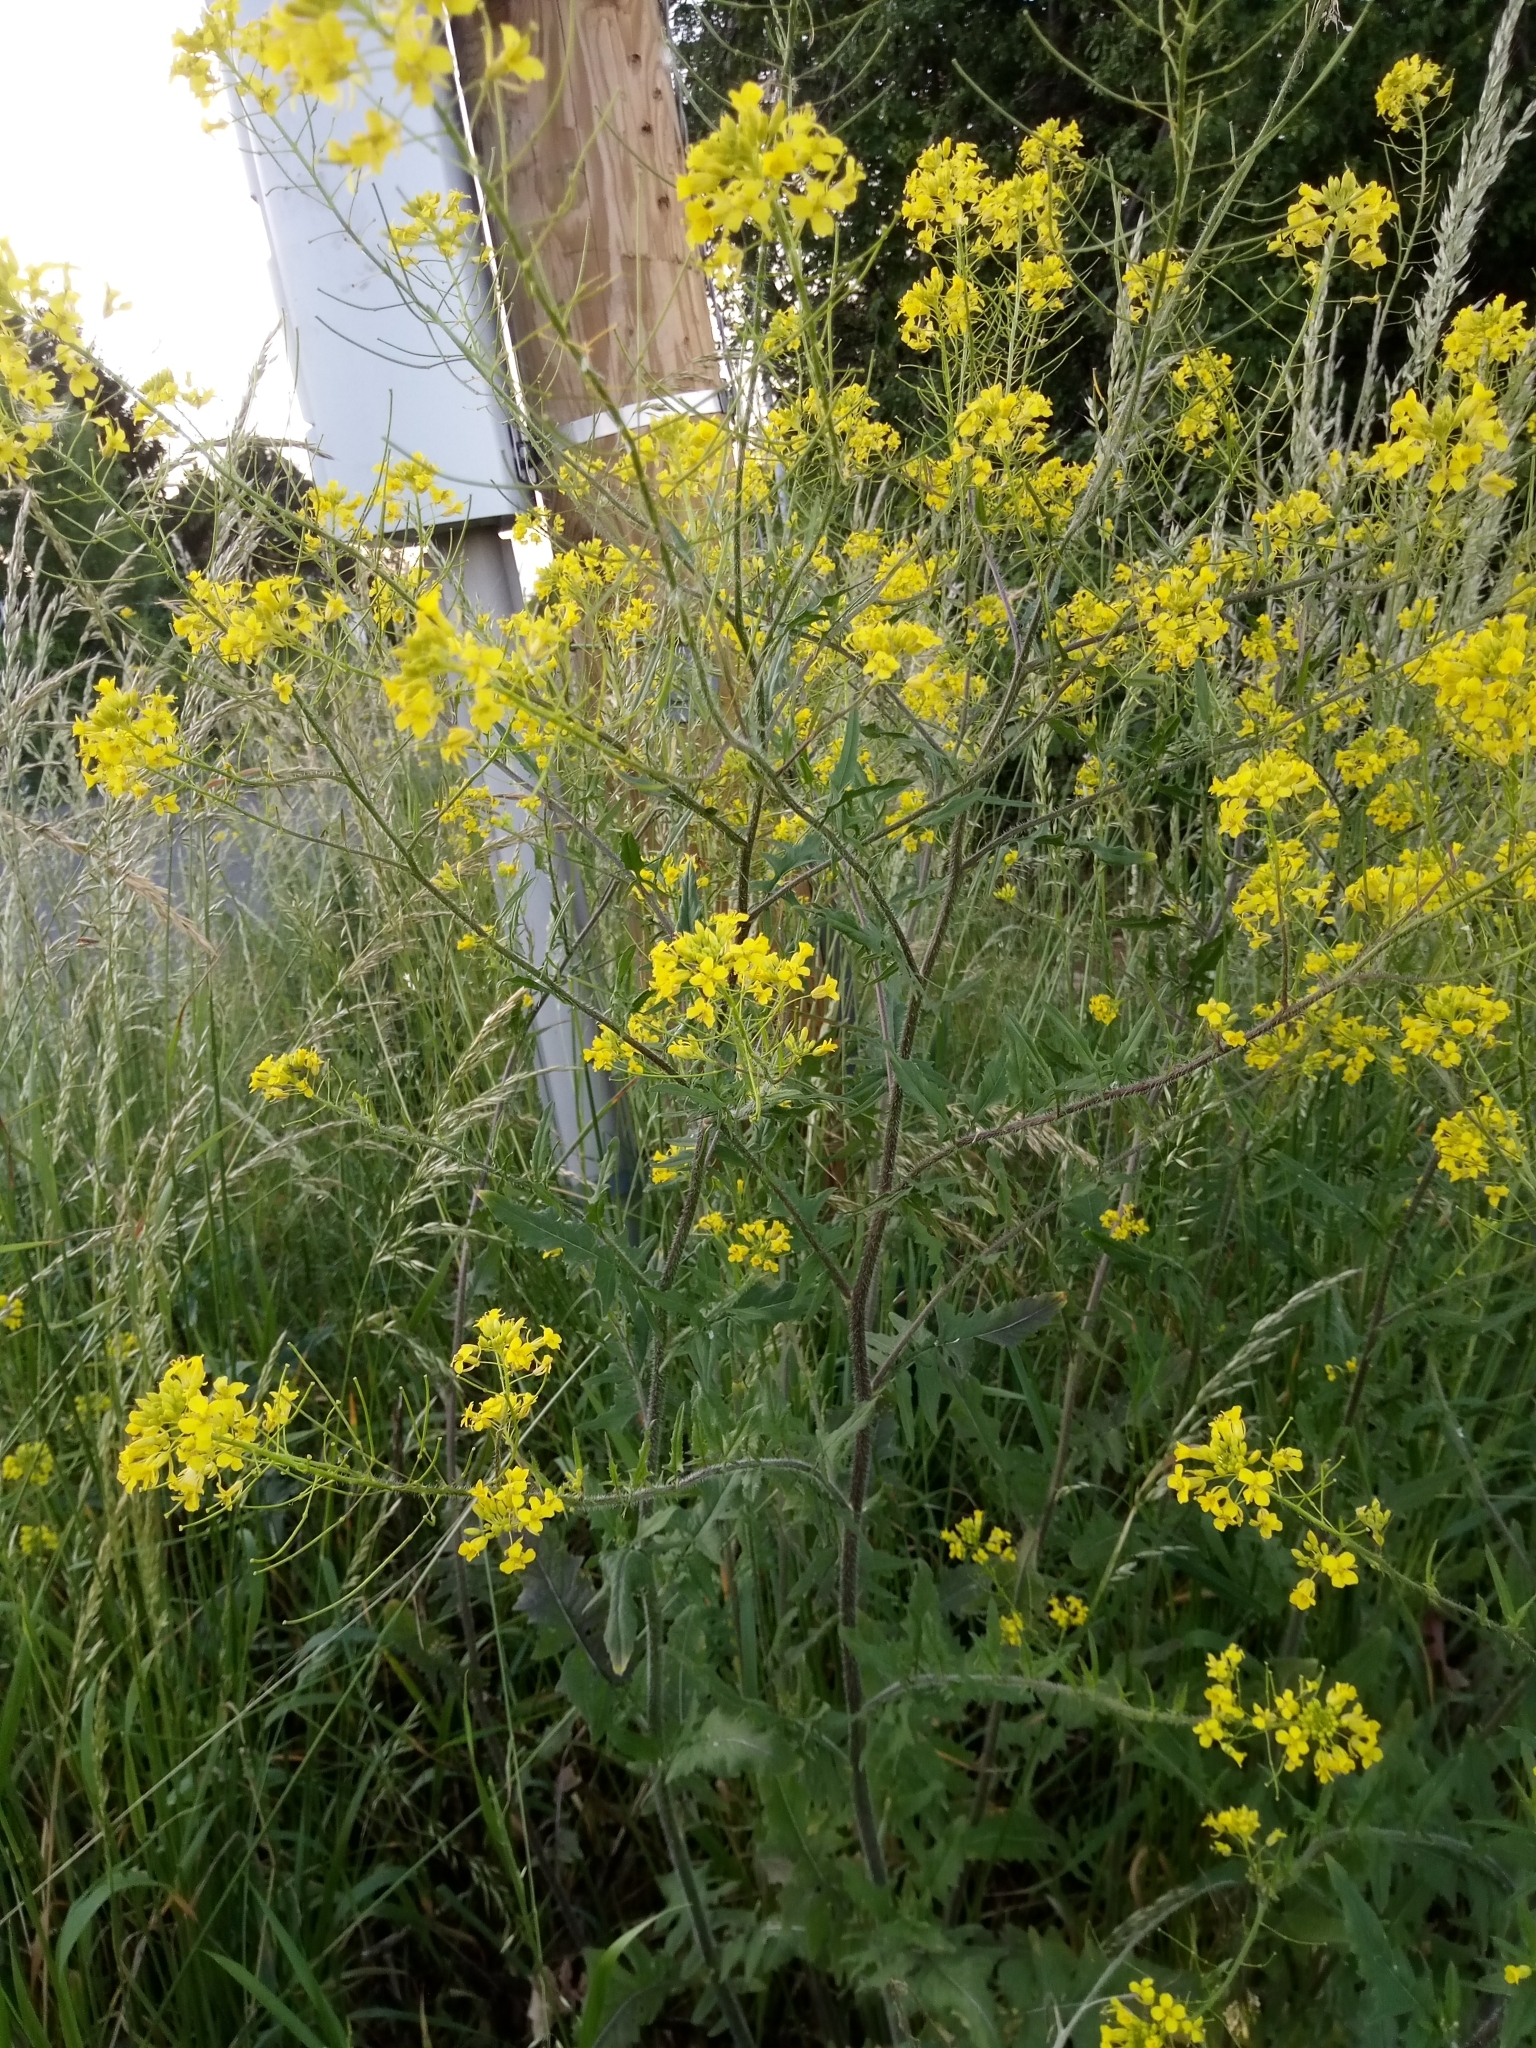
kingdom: Plantae
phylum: Tracheophyta
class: Magnoliopsida
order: Brassicales
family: Brassicaceae
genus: Sisymbrium
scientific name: Sisymbrium loeselii
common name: False london-rocket
